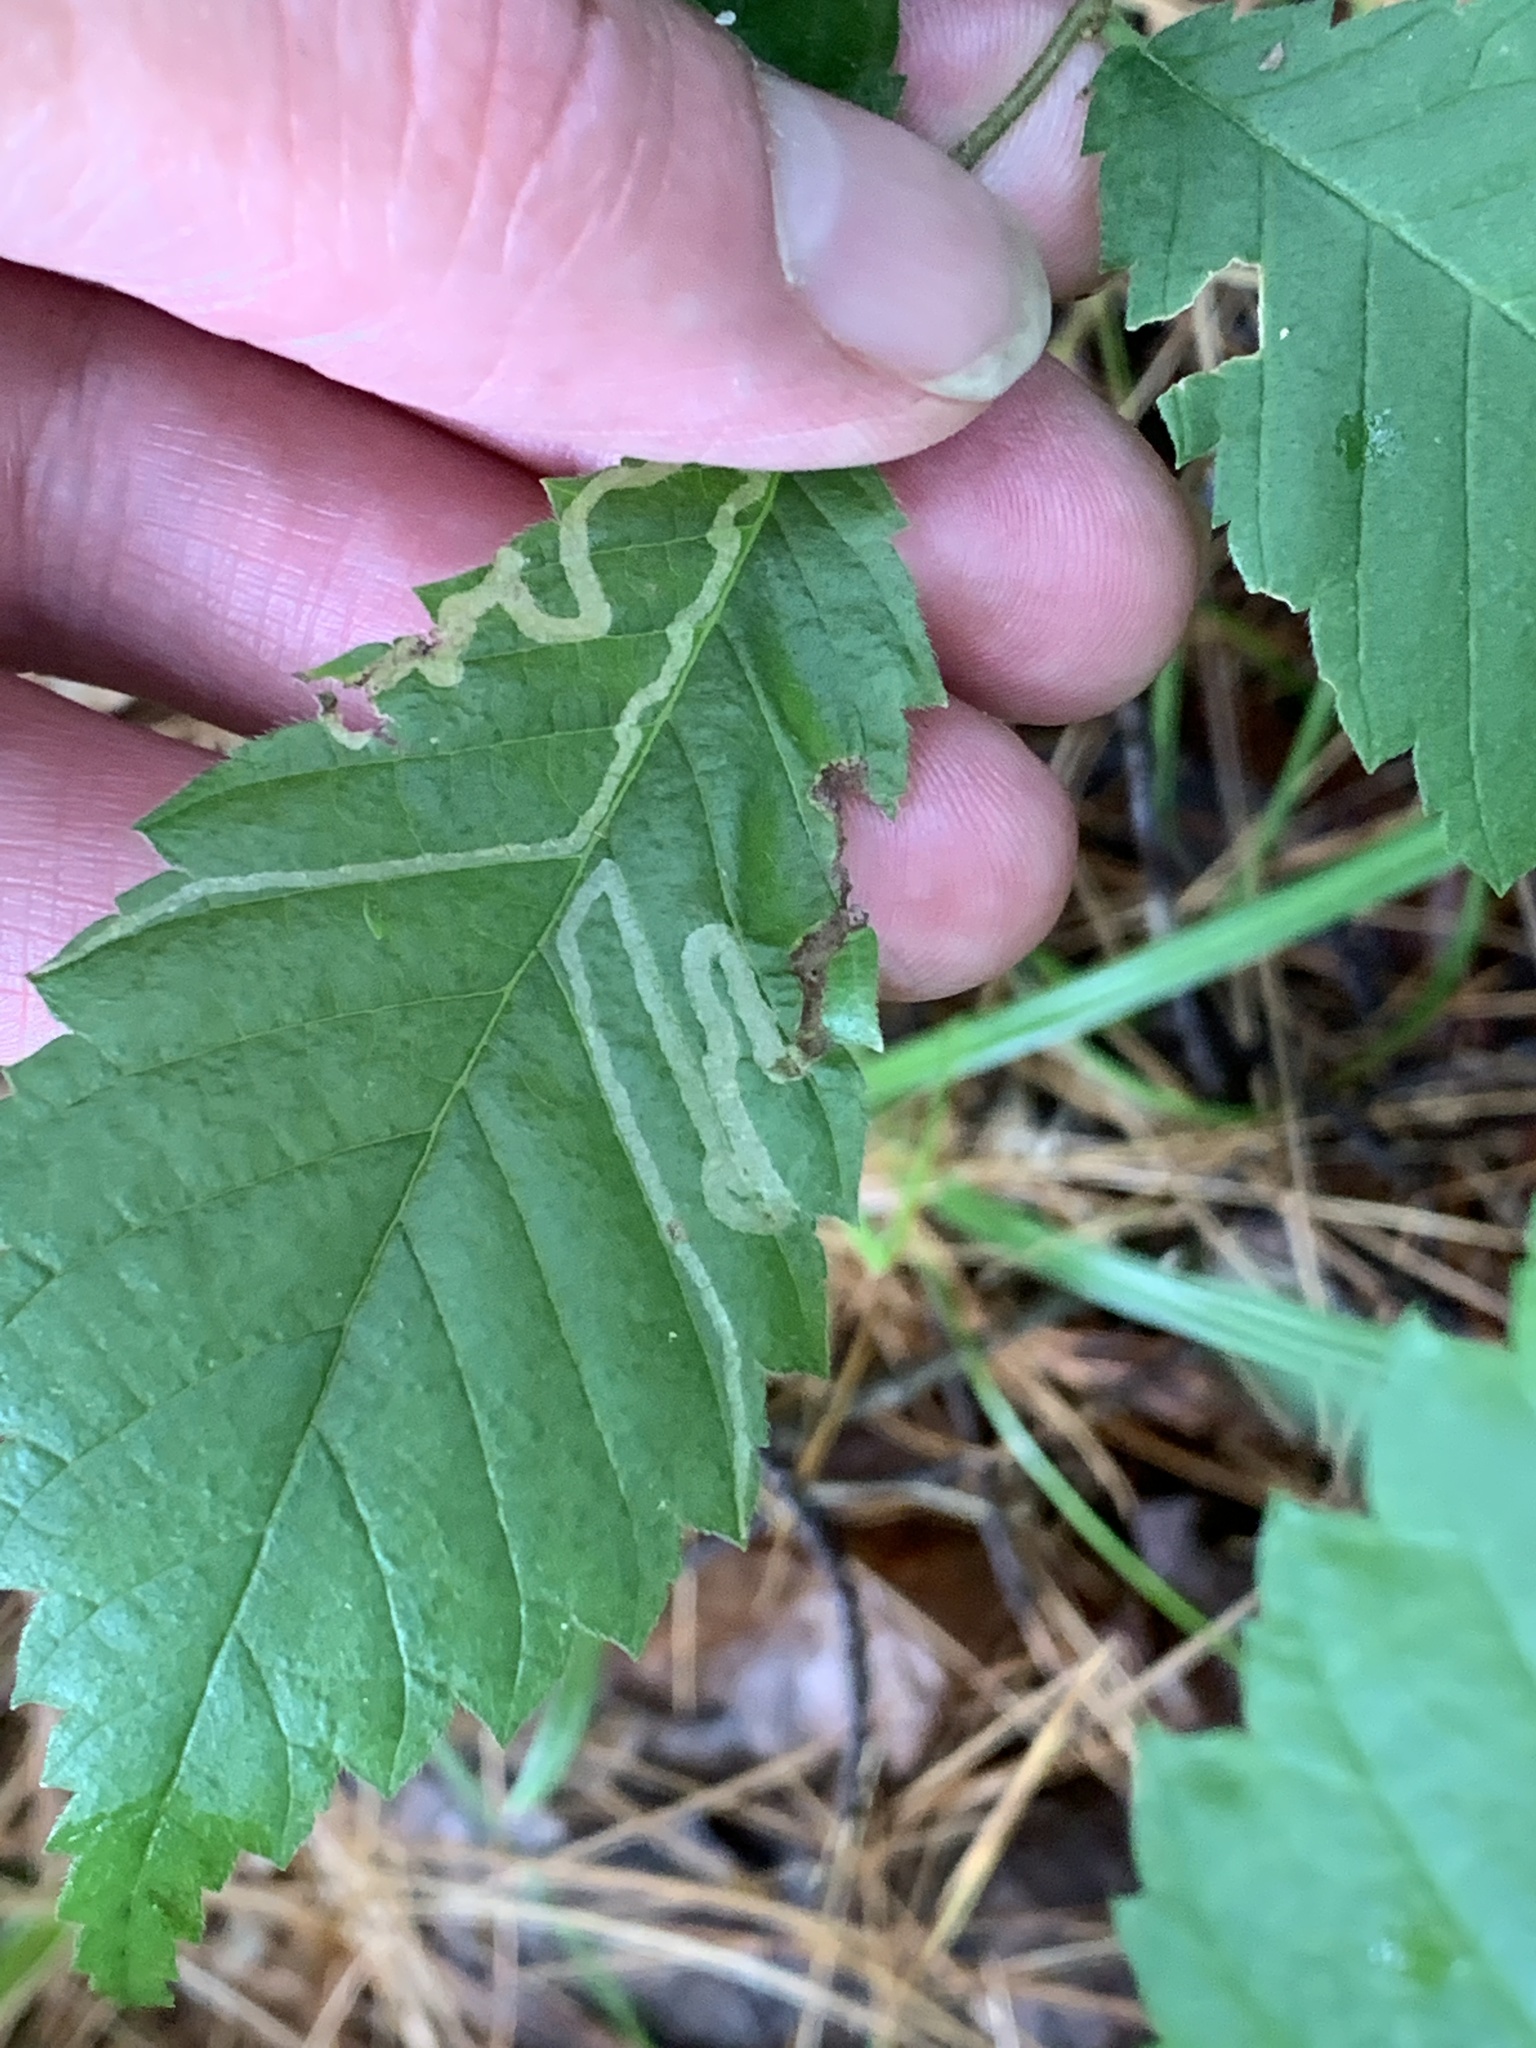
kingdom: Animalia
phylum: Arthropoda
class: Insecta
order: Diptera
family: Agromyzidae
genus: Agromyza
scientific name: Agromyza aristata
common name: Elm agromyzid leafminer
